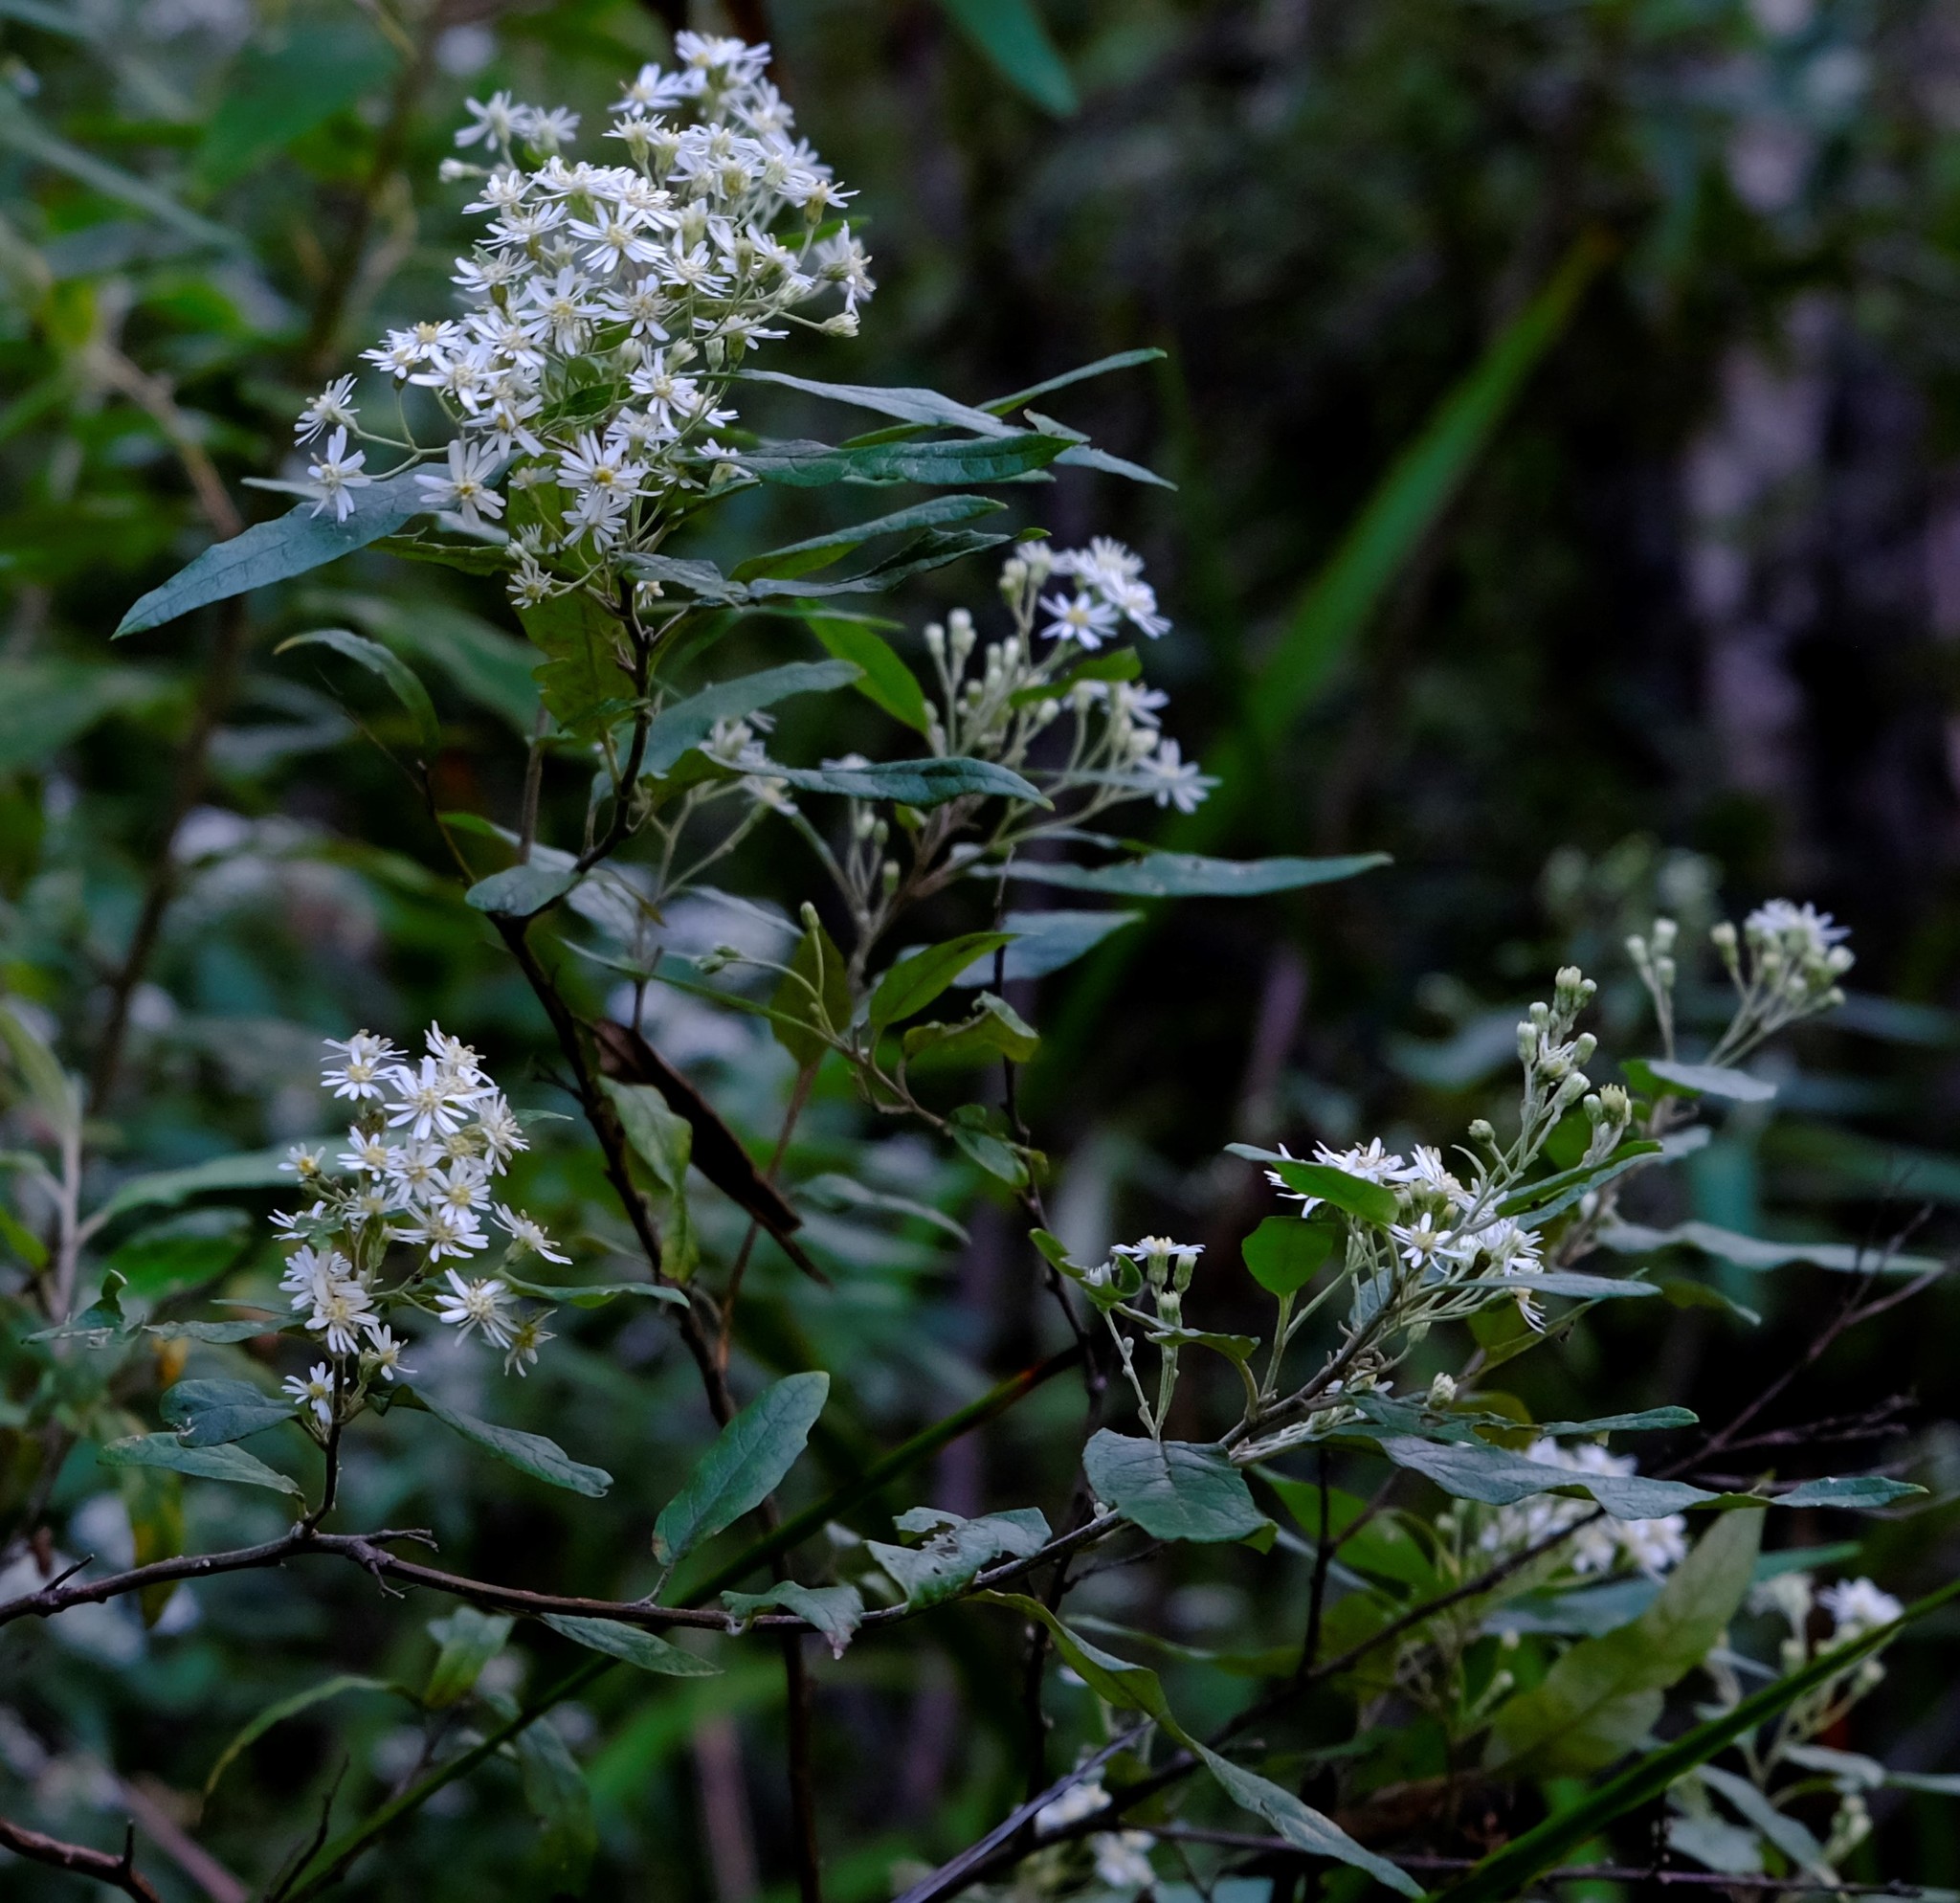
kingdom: Plantae
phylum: Tracheophyta
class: Magnoliopsida
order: Asterales
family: Asteraceae
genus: Olearia
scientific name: Olearia lirata
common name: Dusty daisybush
